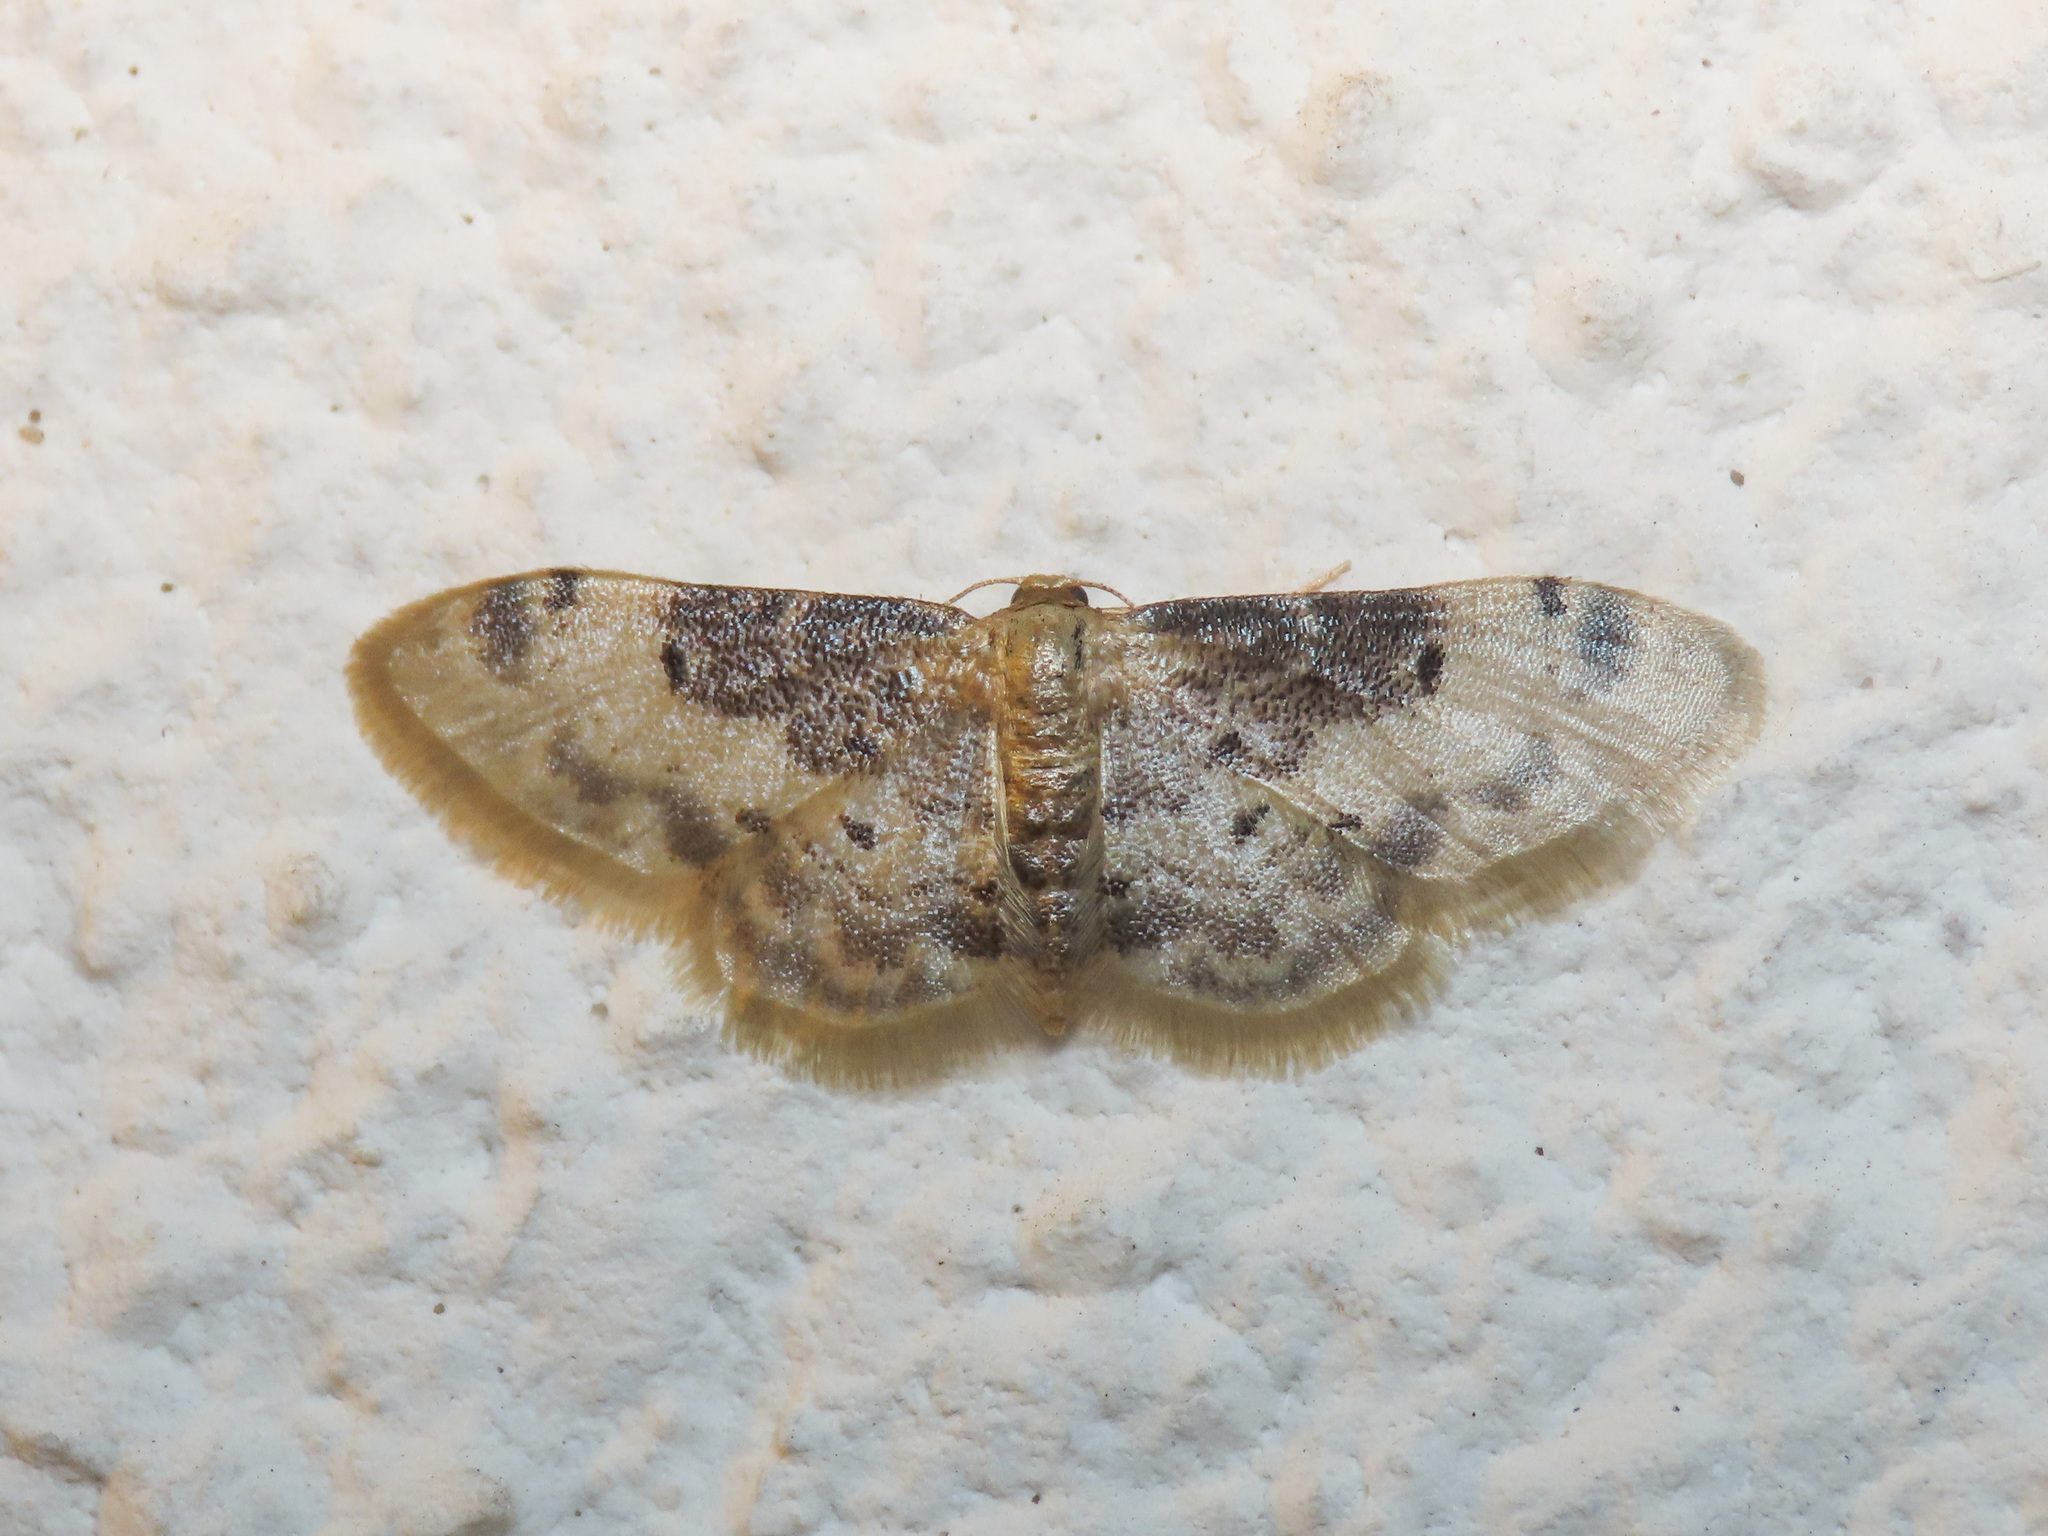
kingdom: Animalia
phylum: Arthropoda
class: Insecta
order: Lepidoptera
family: Geometridae
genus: Idaea
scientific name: Idaea filicata
